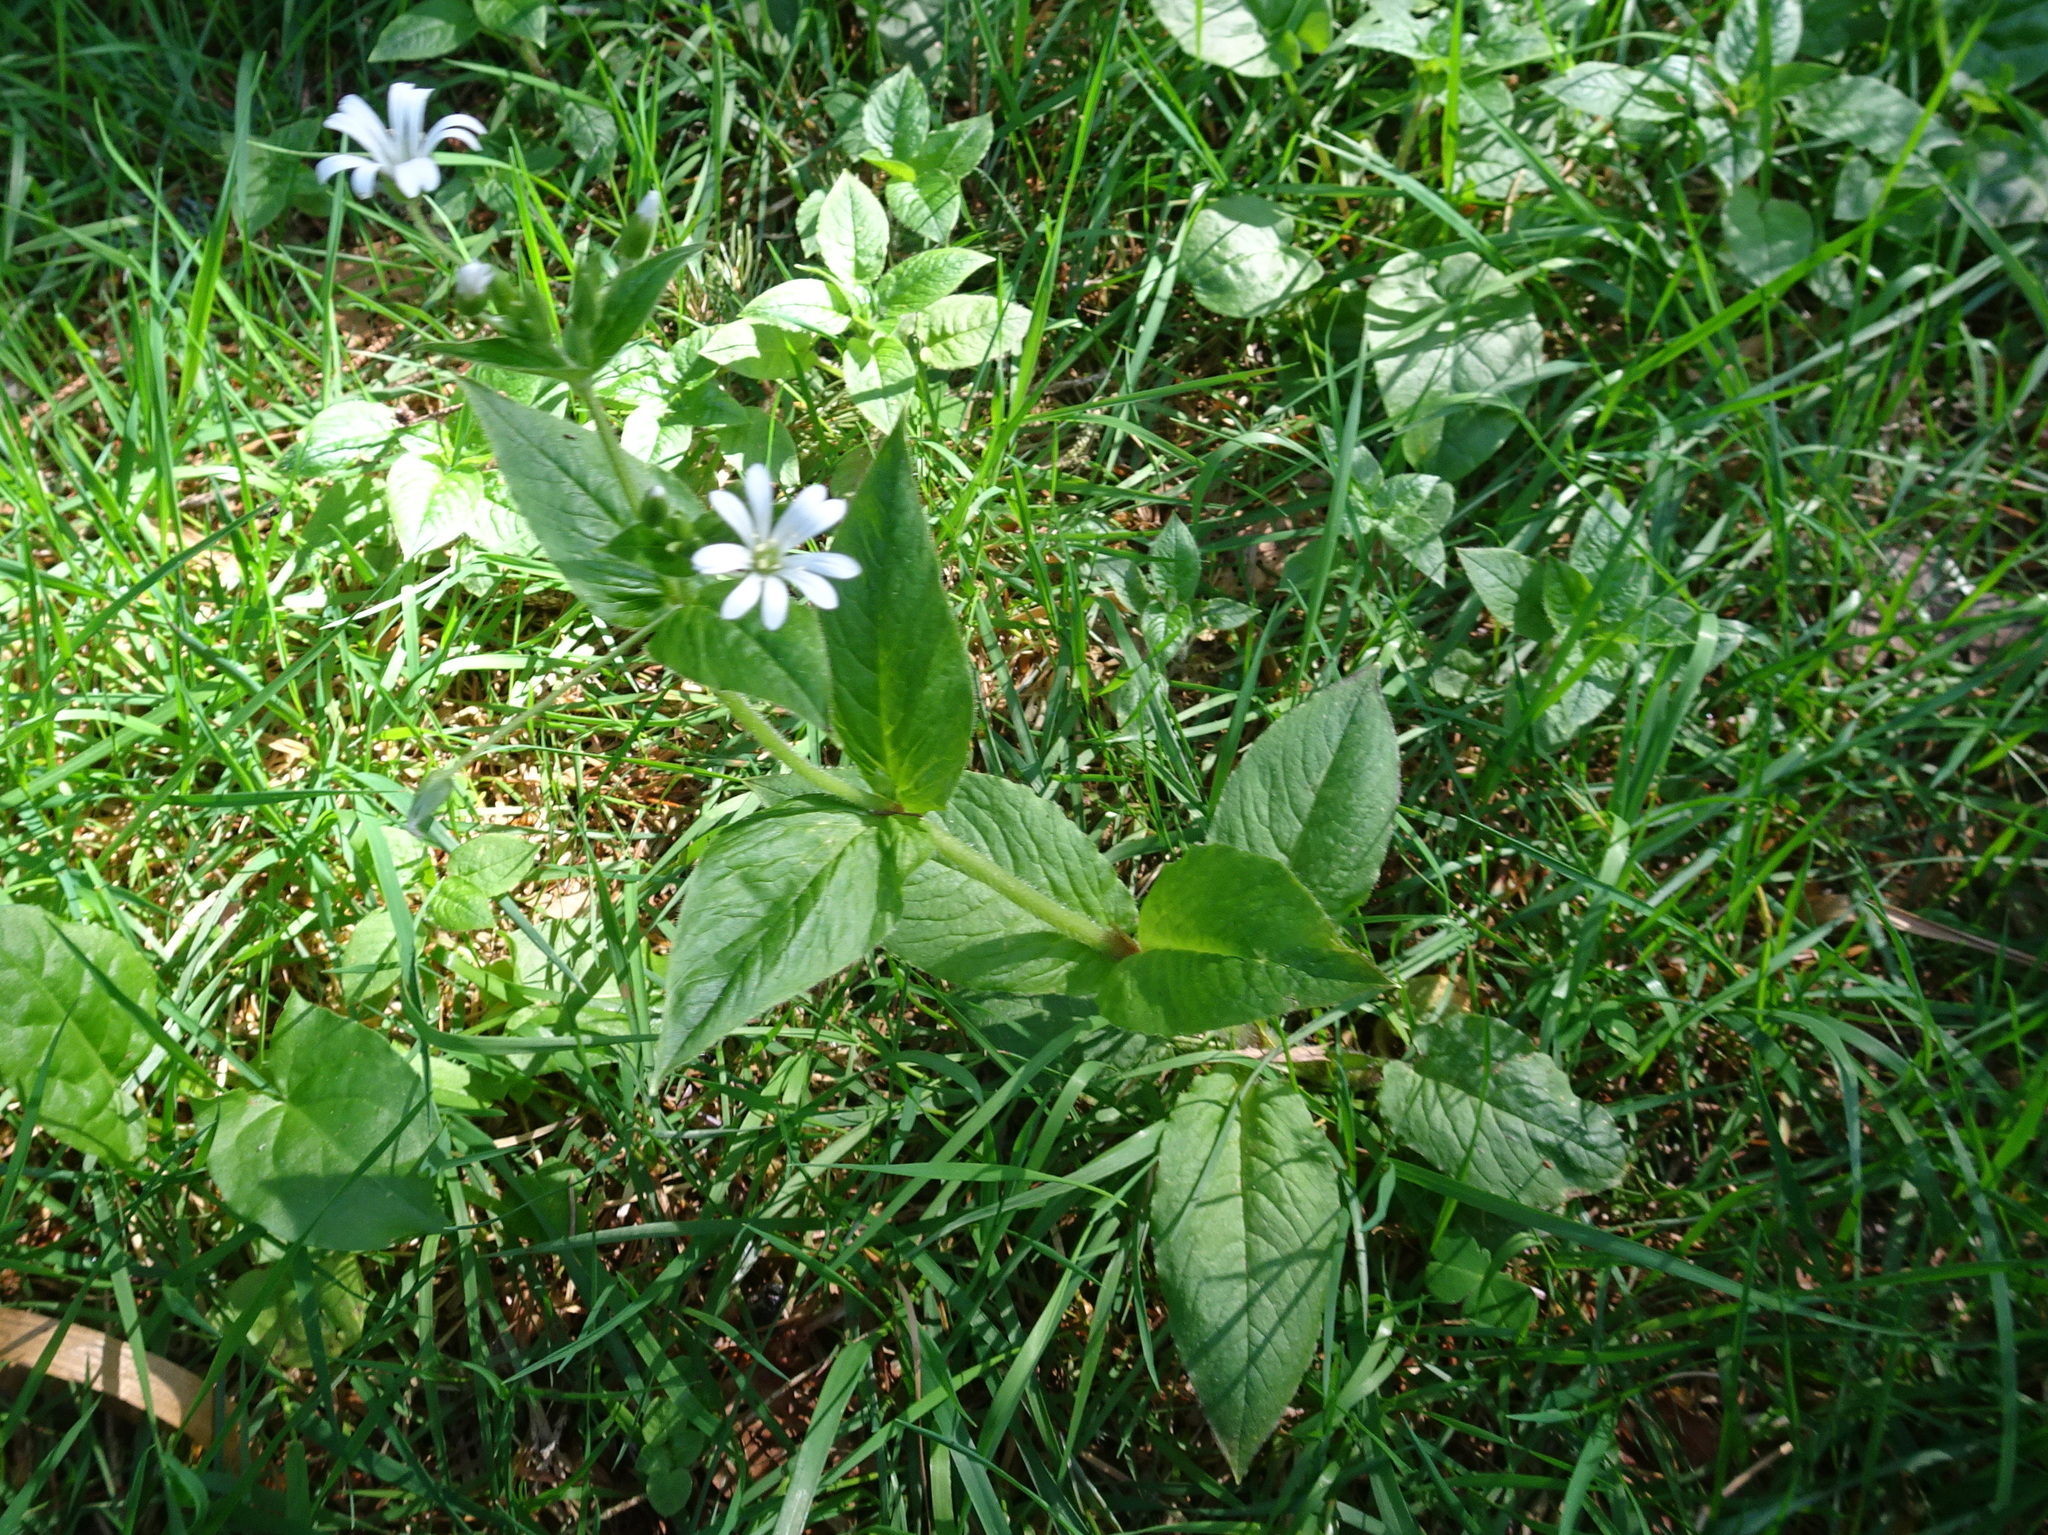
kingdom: Plantae
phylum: Tracheophyta
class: Magnoliopsida
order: Caryophyllales
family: Caryophyllaceae
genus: Stellaria
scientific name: Stellaria nemorum
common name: Wood stitchwort
